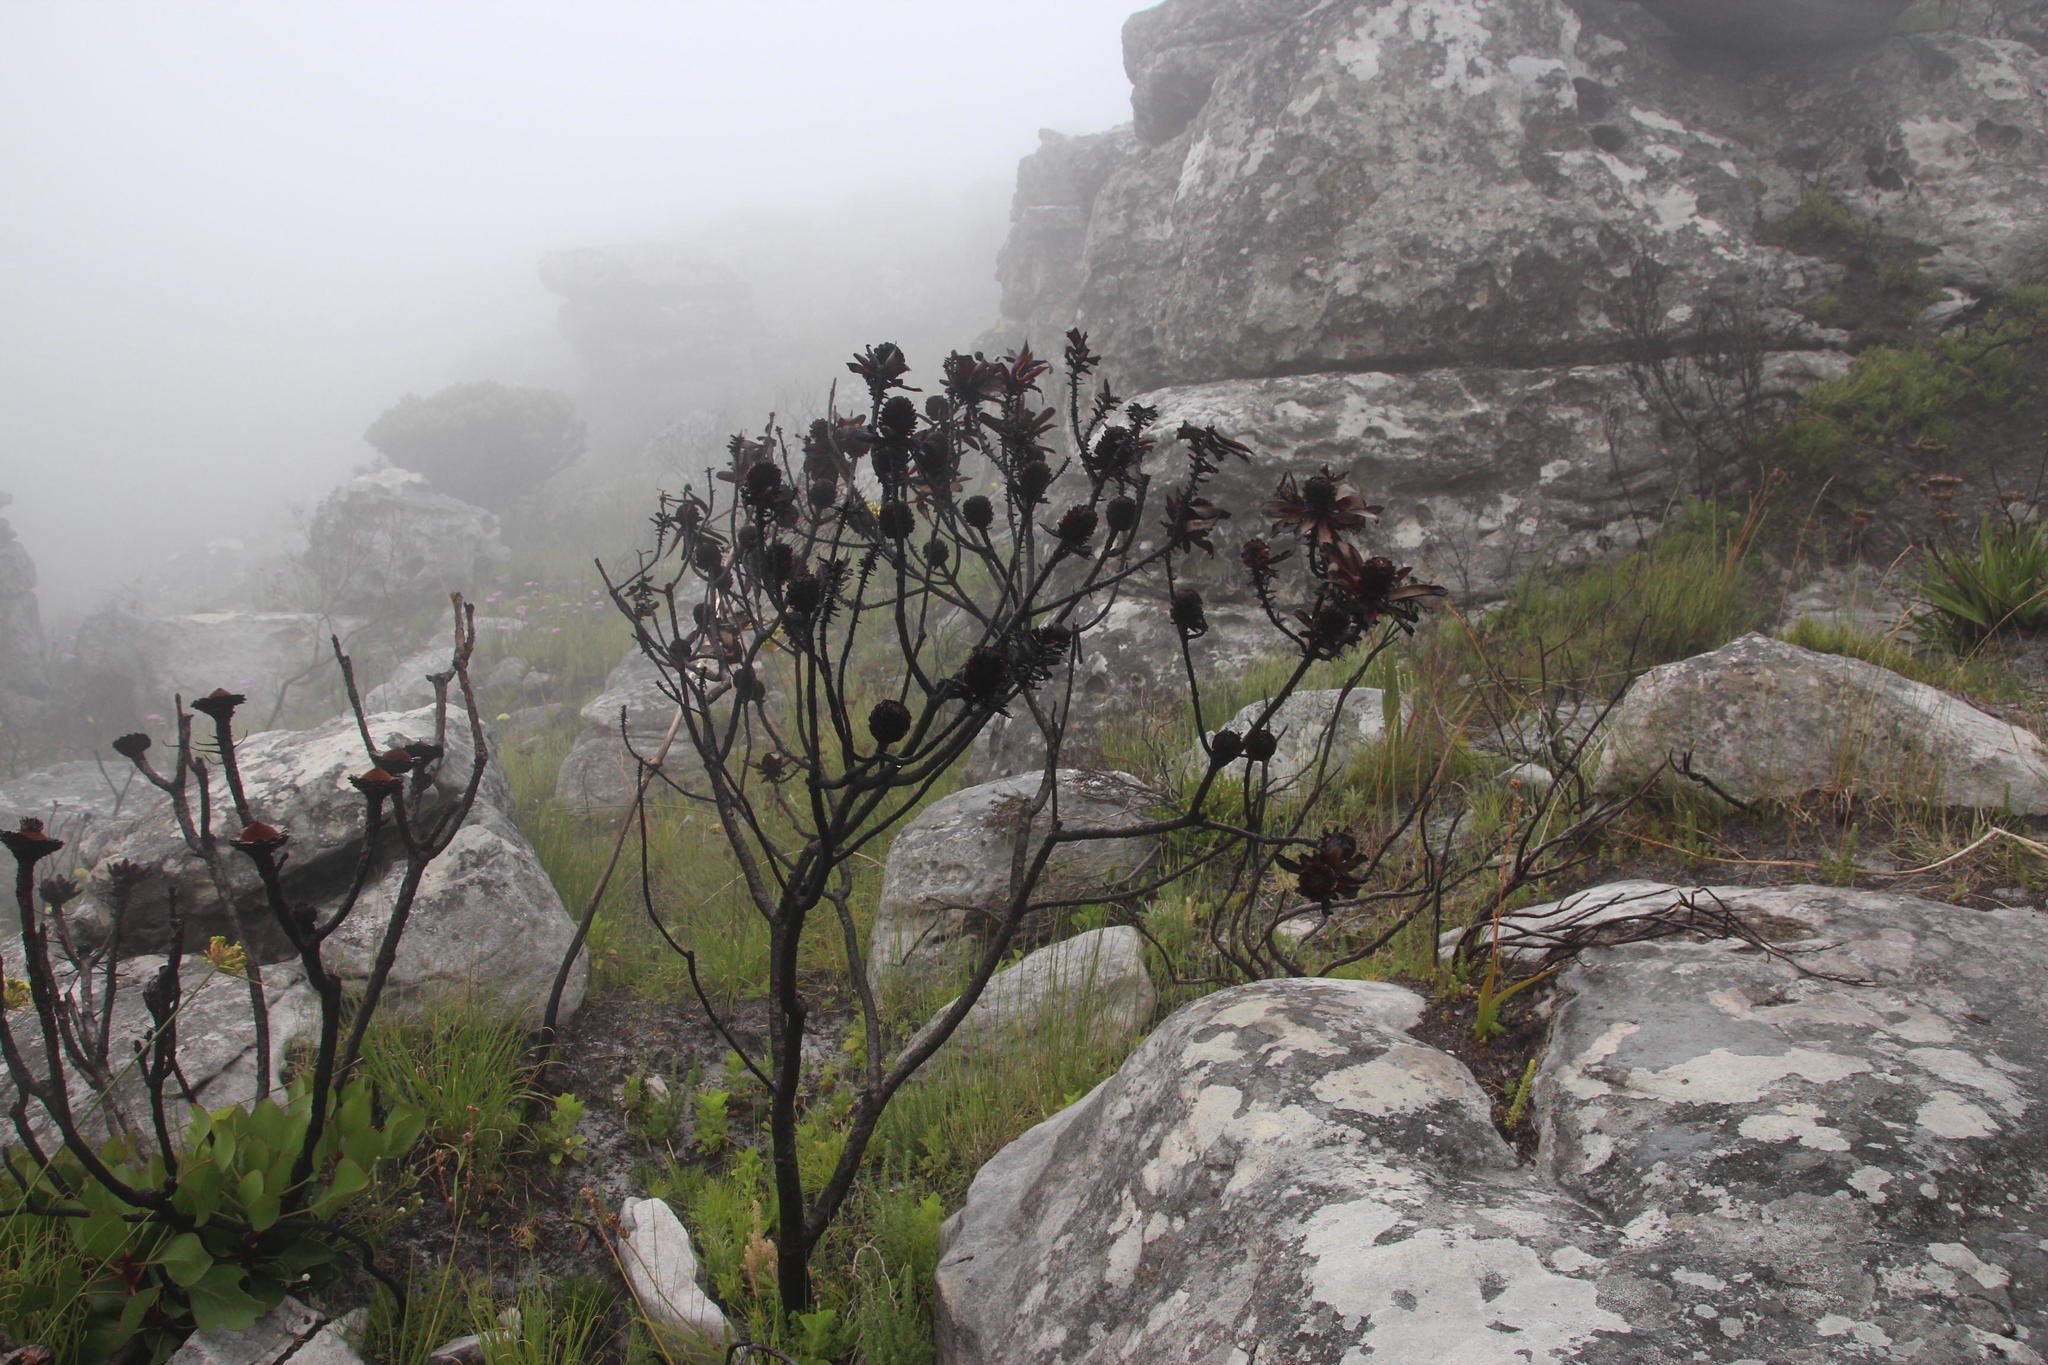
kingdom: Plantae
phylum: Tracheophyta
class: Magnoliopsida
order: Proteales
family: Proteaceae
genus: Leucadendron
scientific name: Leucadendron strobilinum
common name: Mountain rose
